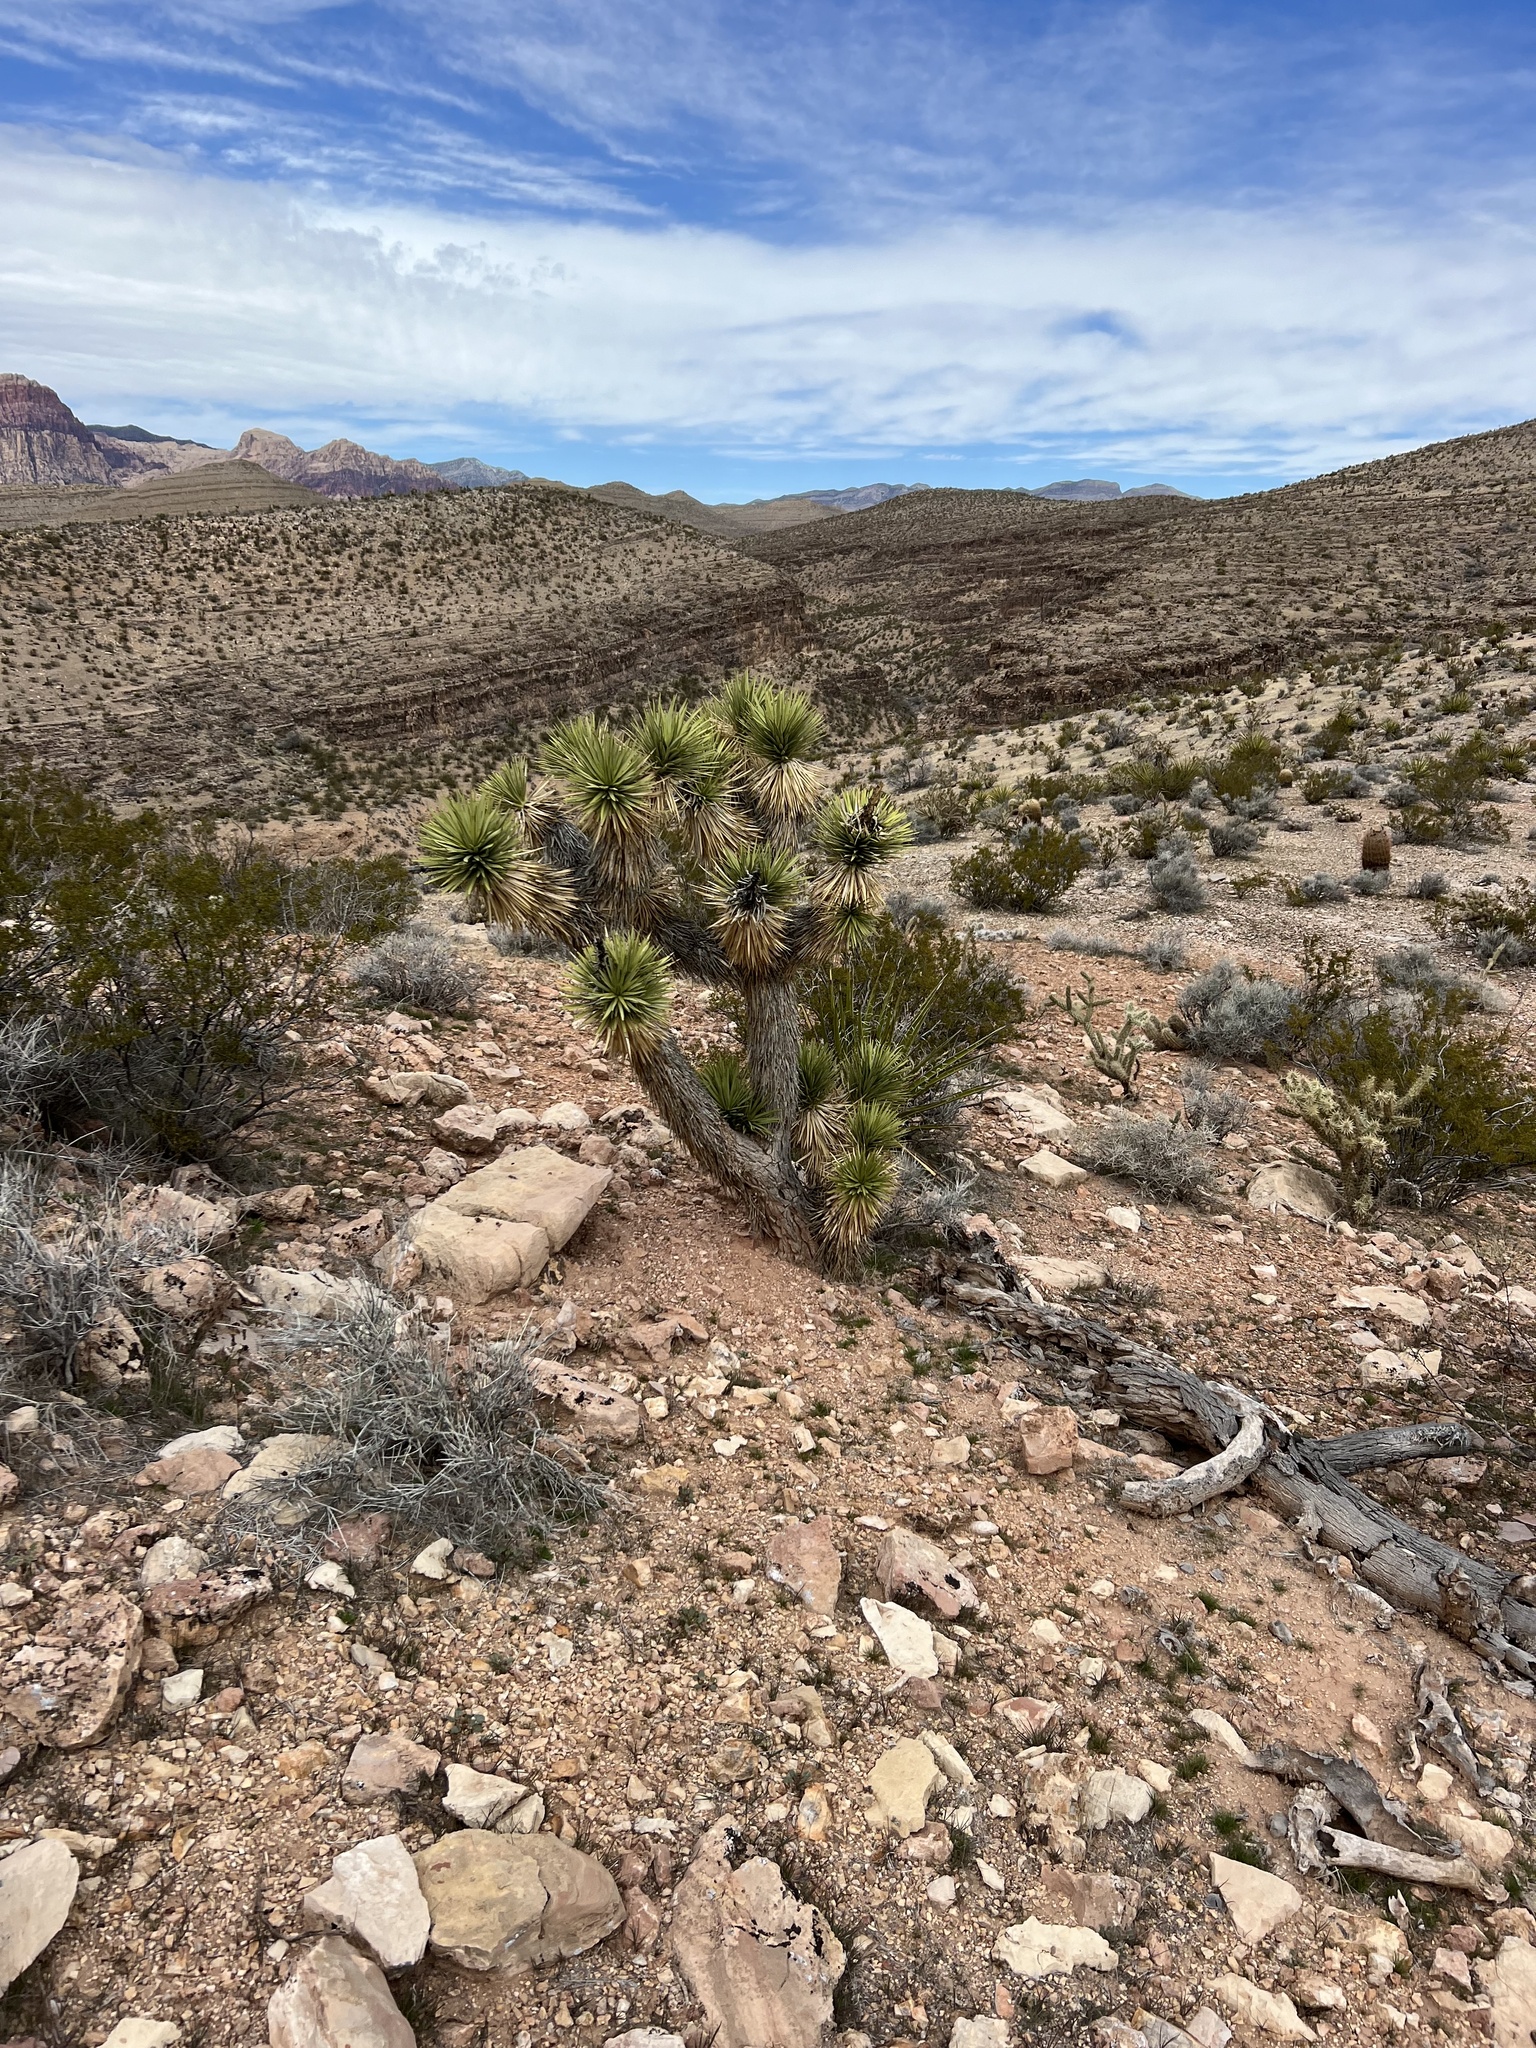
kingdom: Plantae
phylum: Tracheophyta
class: Liliopsida
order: Asparagales
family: Asparagaceae
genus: Yucca
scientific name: Yucca brevifolia
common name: Joshua tree
